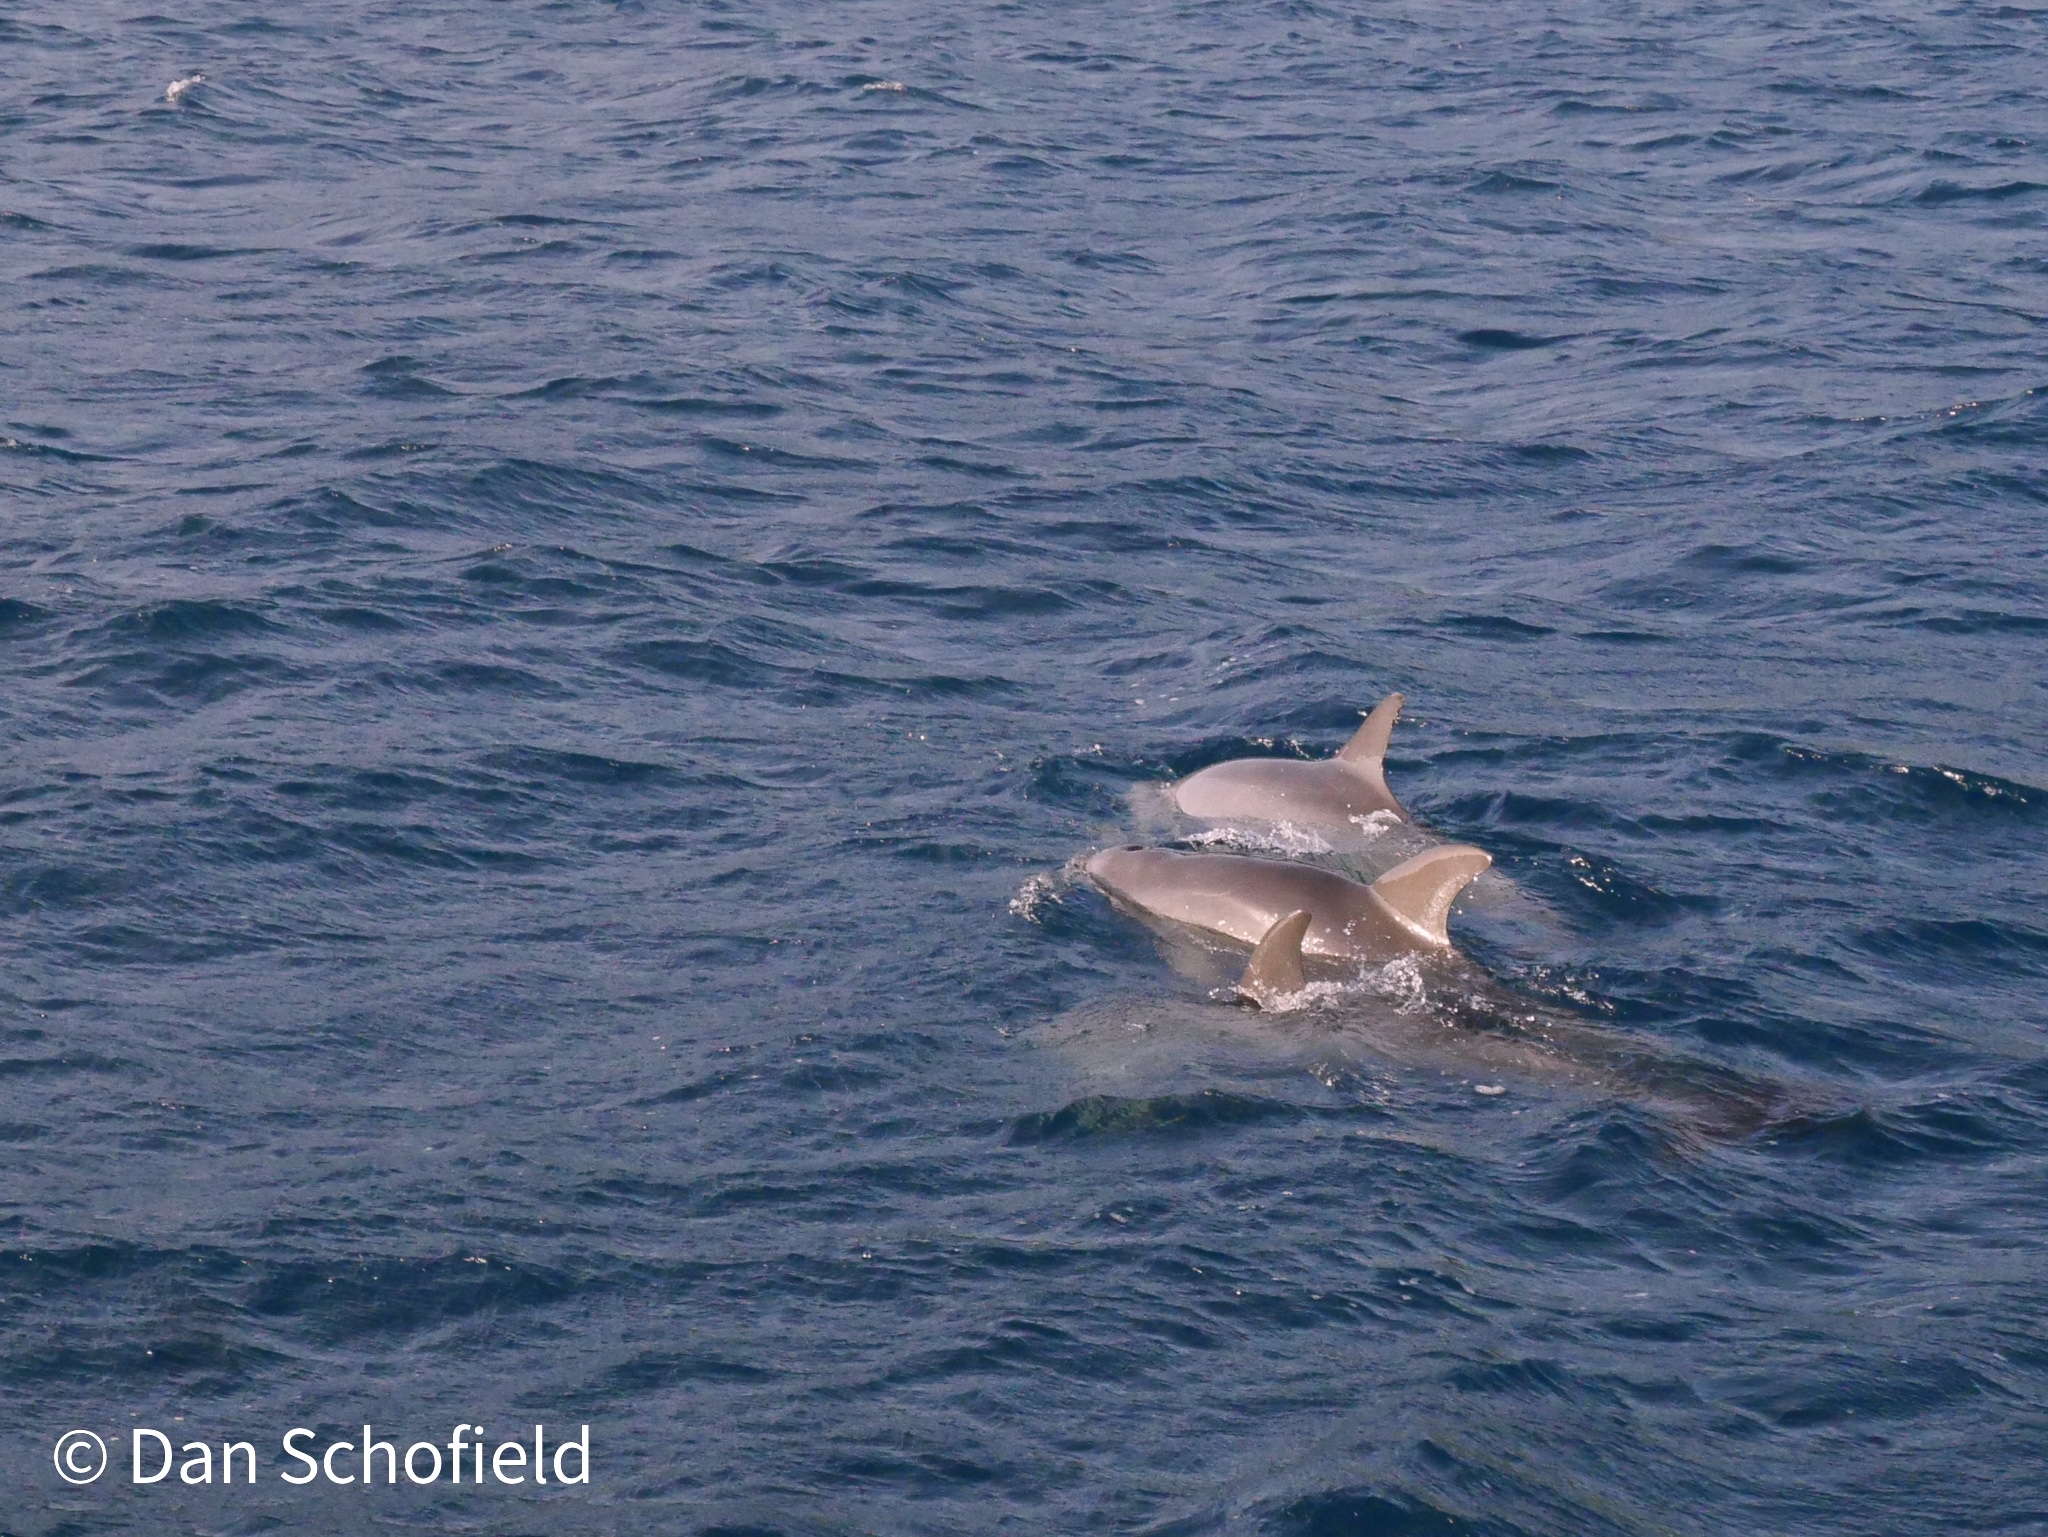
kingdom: Animalia
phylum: Chordata
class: Mammalia
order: Cetacea
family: Delphinidae
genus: Tursiops
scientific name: Tursiops truncatus
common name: Bottlenose dolphin
